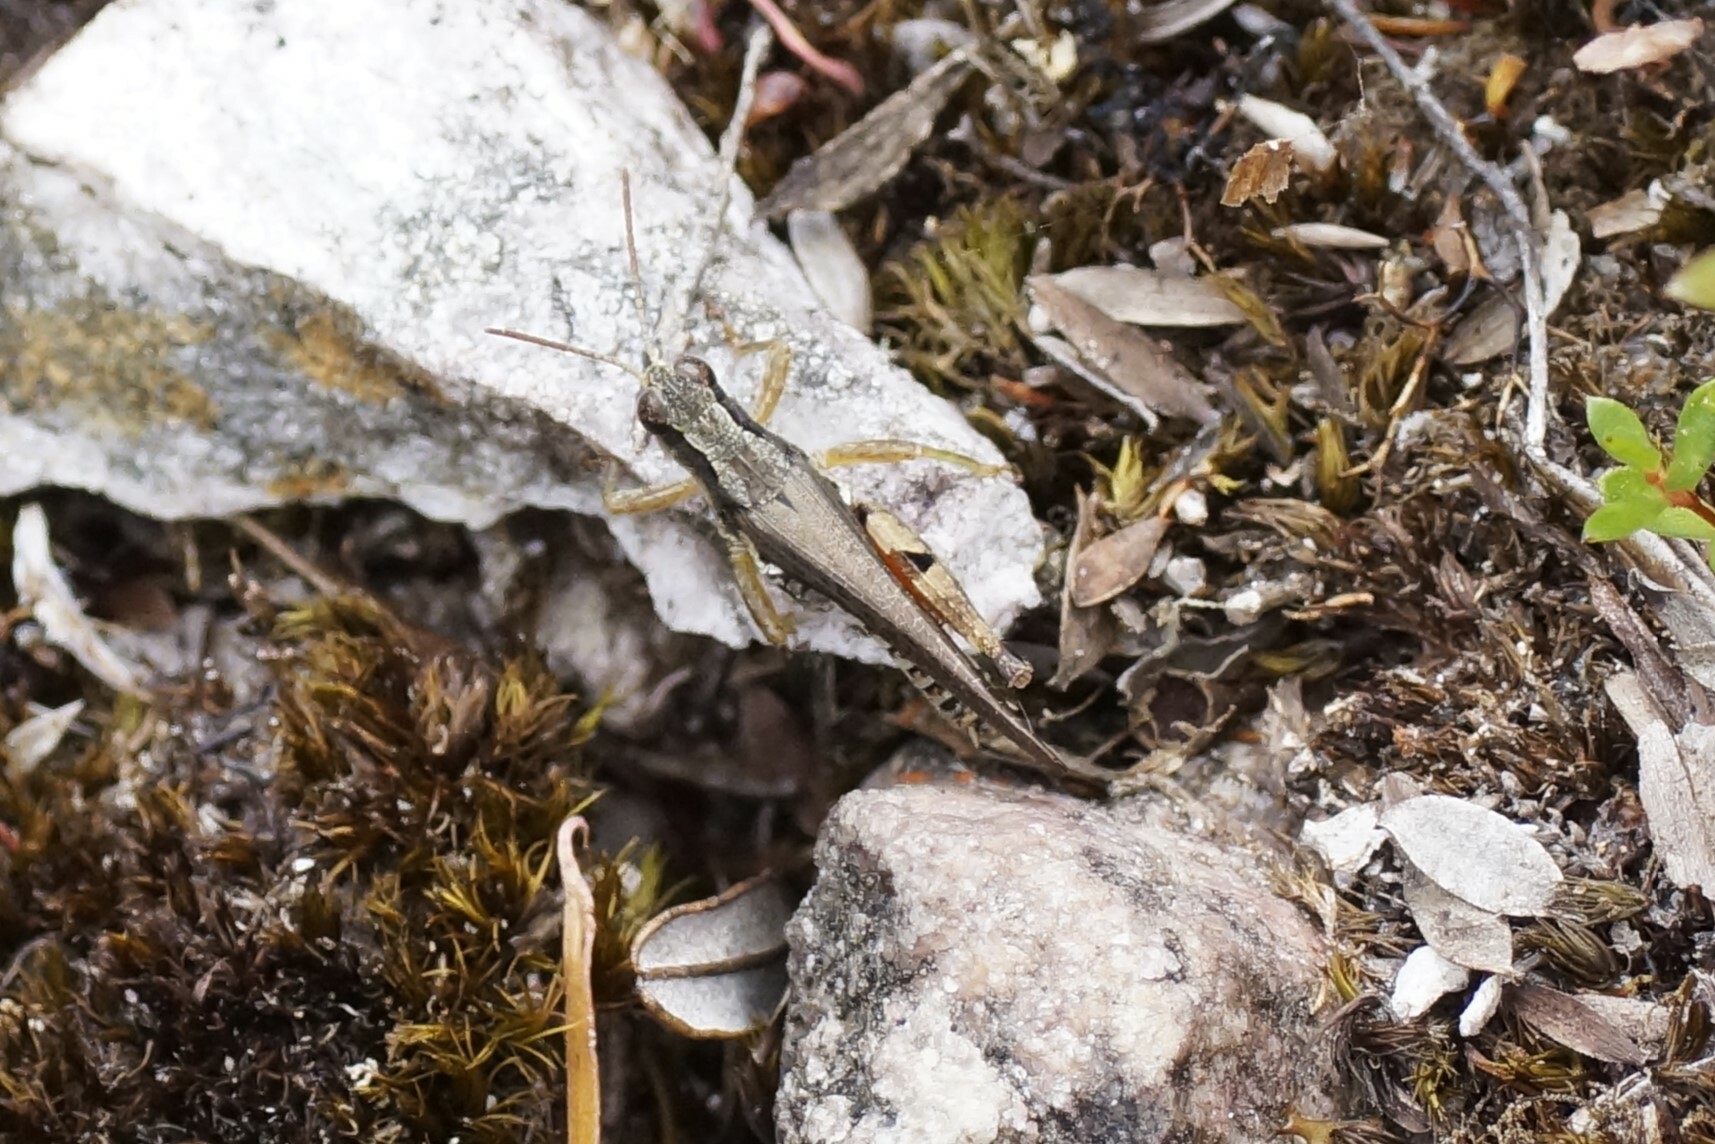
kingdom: Animalia
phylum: Arthropoda
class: Insecta
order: Orthoptera
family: Acrididae
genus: Phaulacridium
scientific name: Phaulacridium vittatum
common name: Wingless grasshopper
